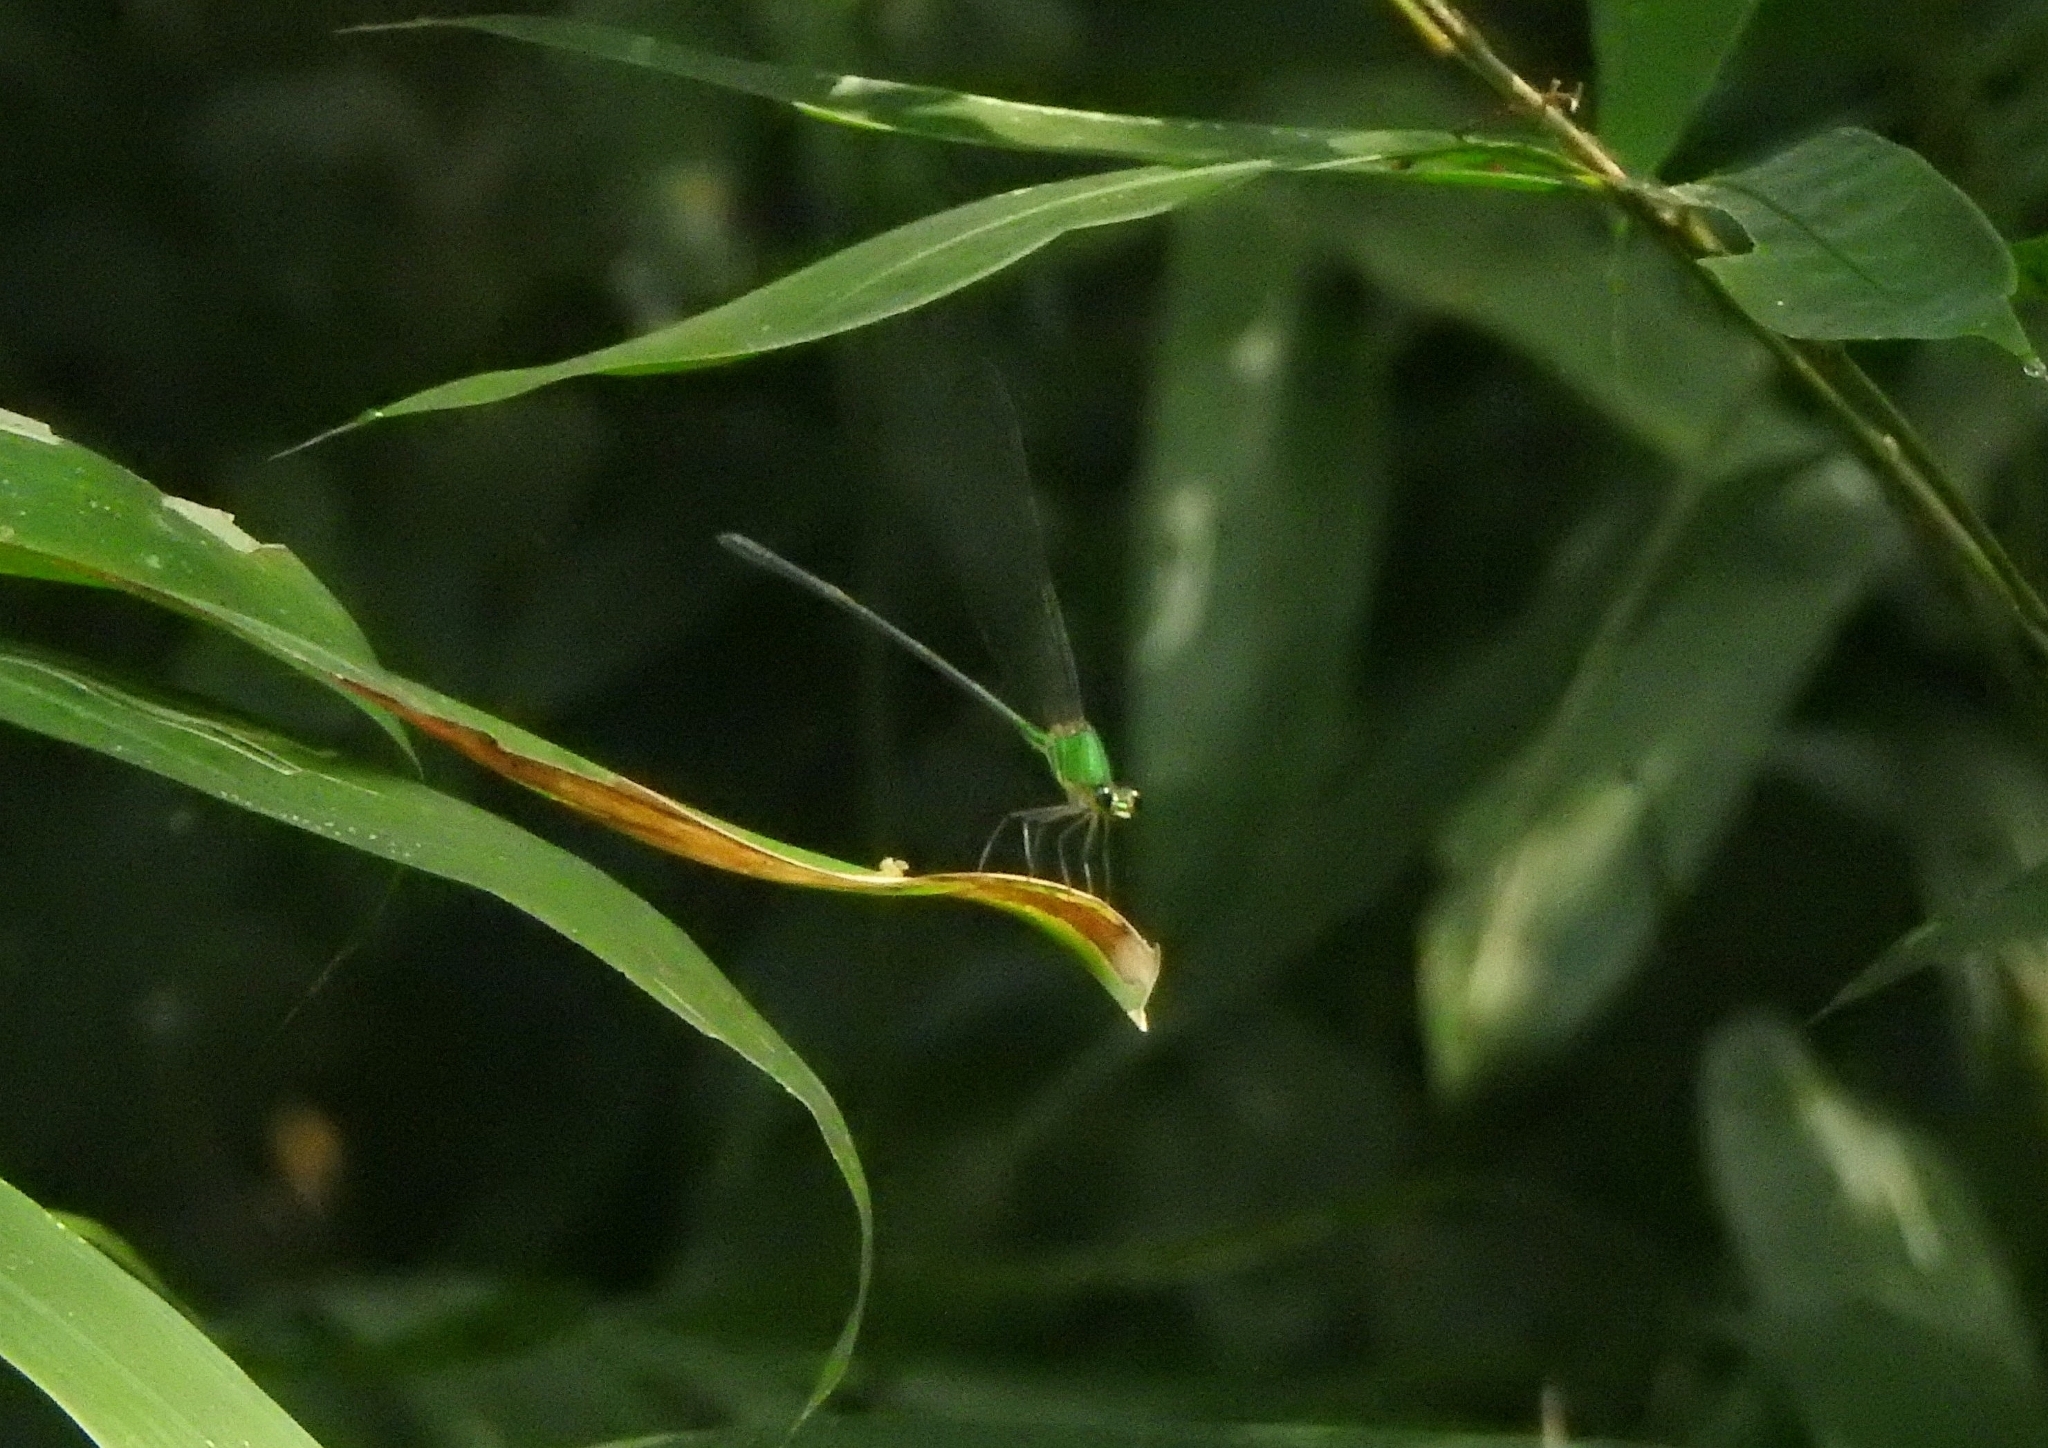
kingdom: Animalia
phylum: Arthropoda
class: Insecta
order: Odonata
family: Calopterygidae
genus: Vestalis
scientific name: Vestalis gracilis
